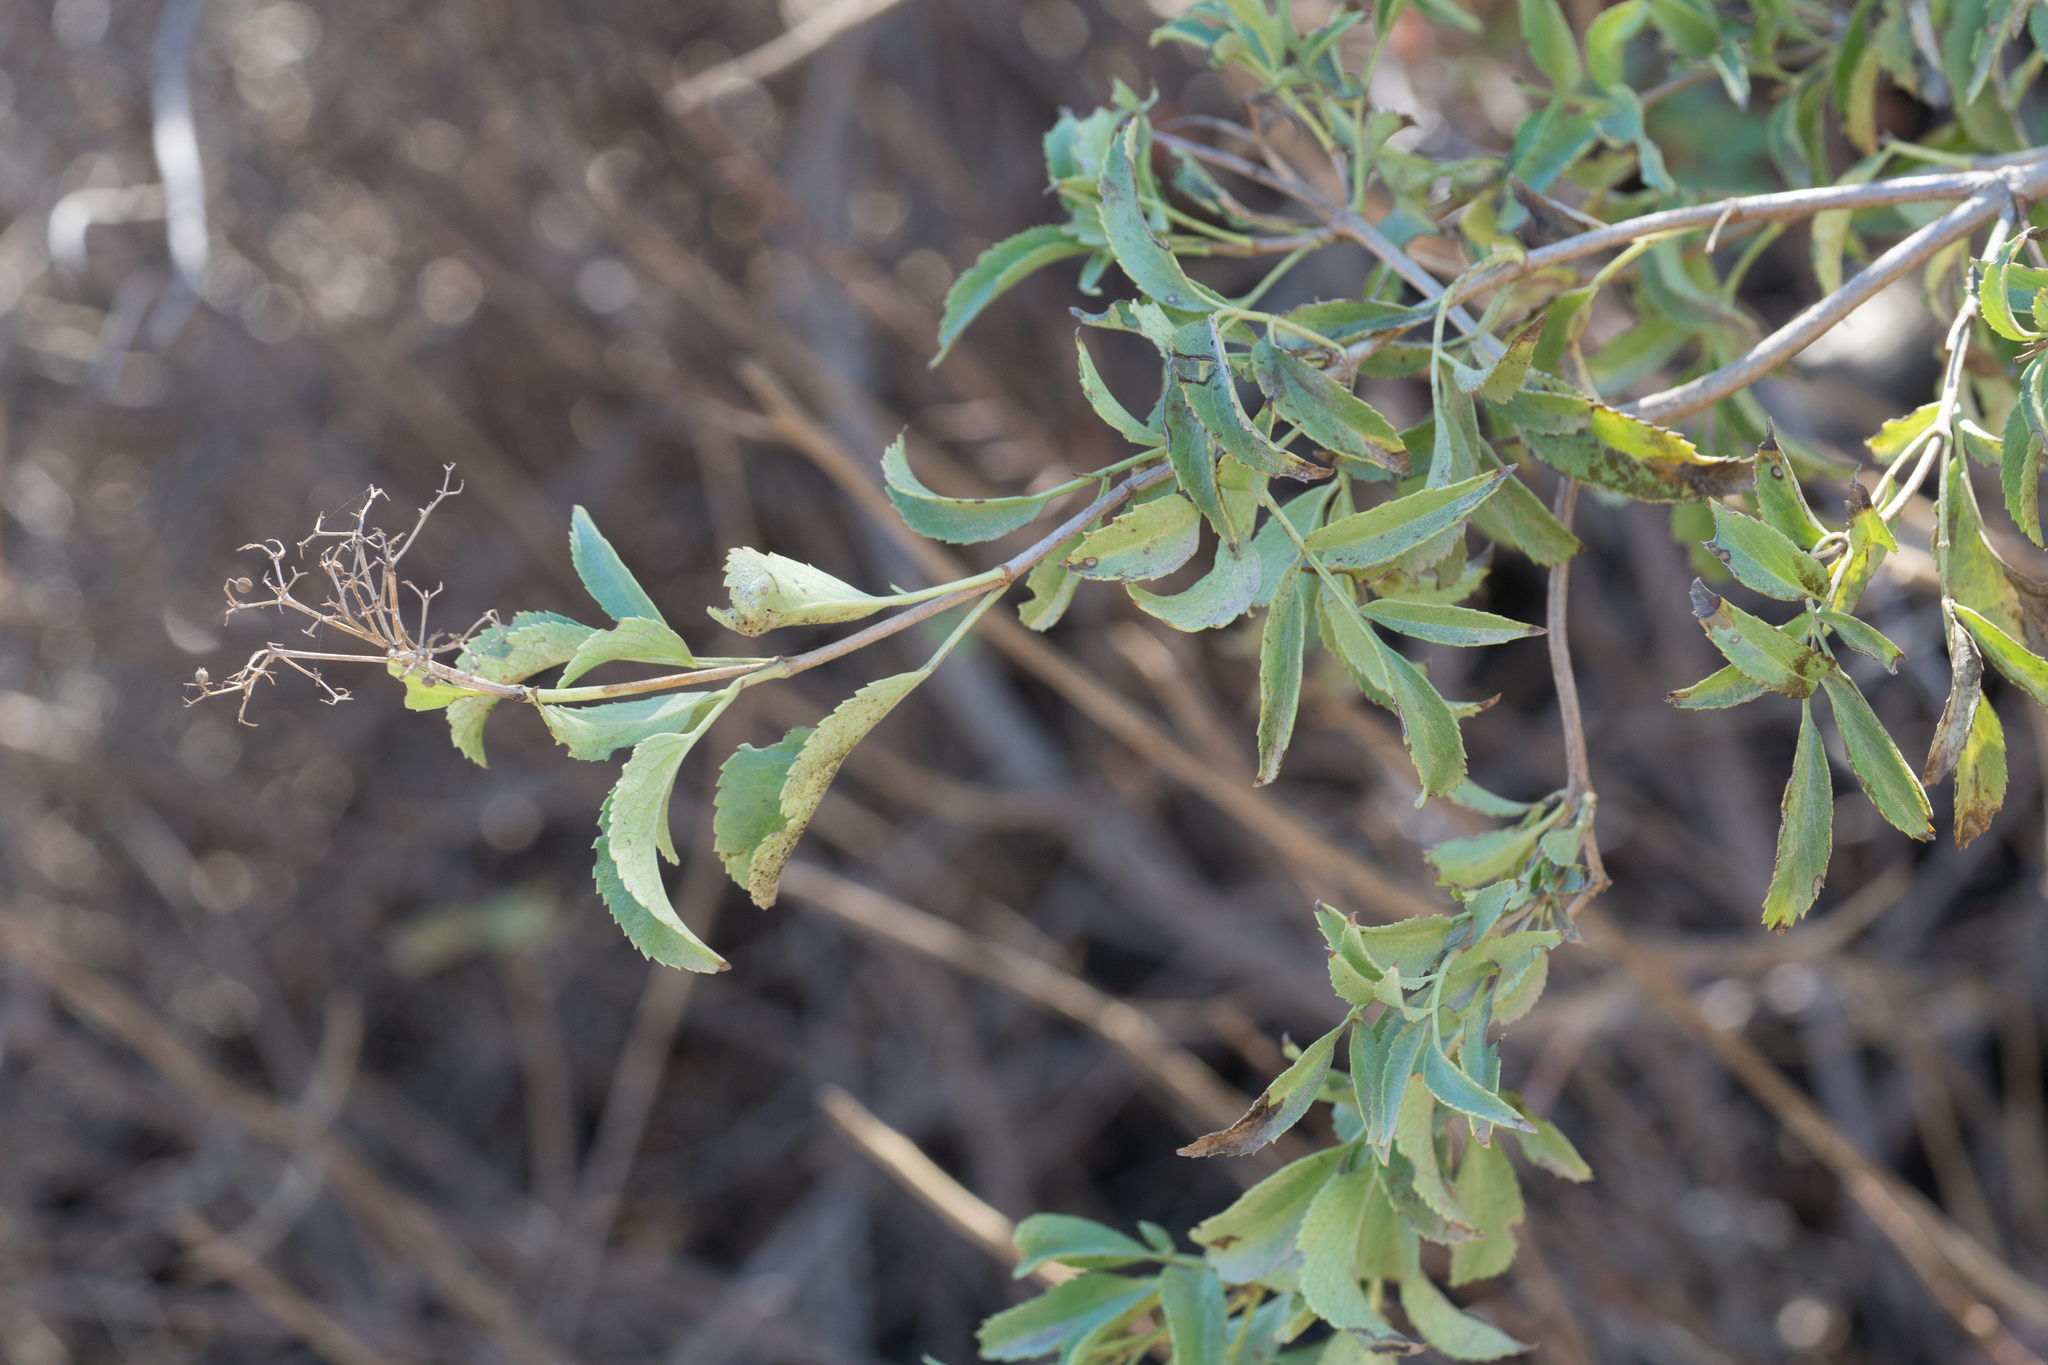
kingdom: Plantae
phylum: Tracheophyta
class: Magnoliopsida
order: Dipsacales
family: Viburnaceae
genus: Sambucus
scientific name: Sambucus cerulea
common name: Blue elder
